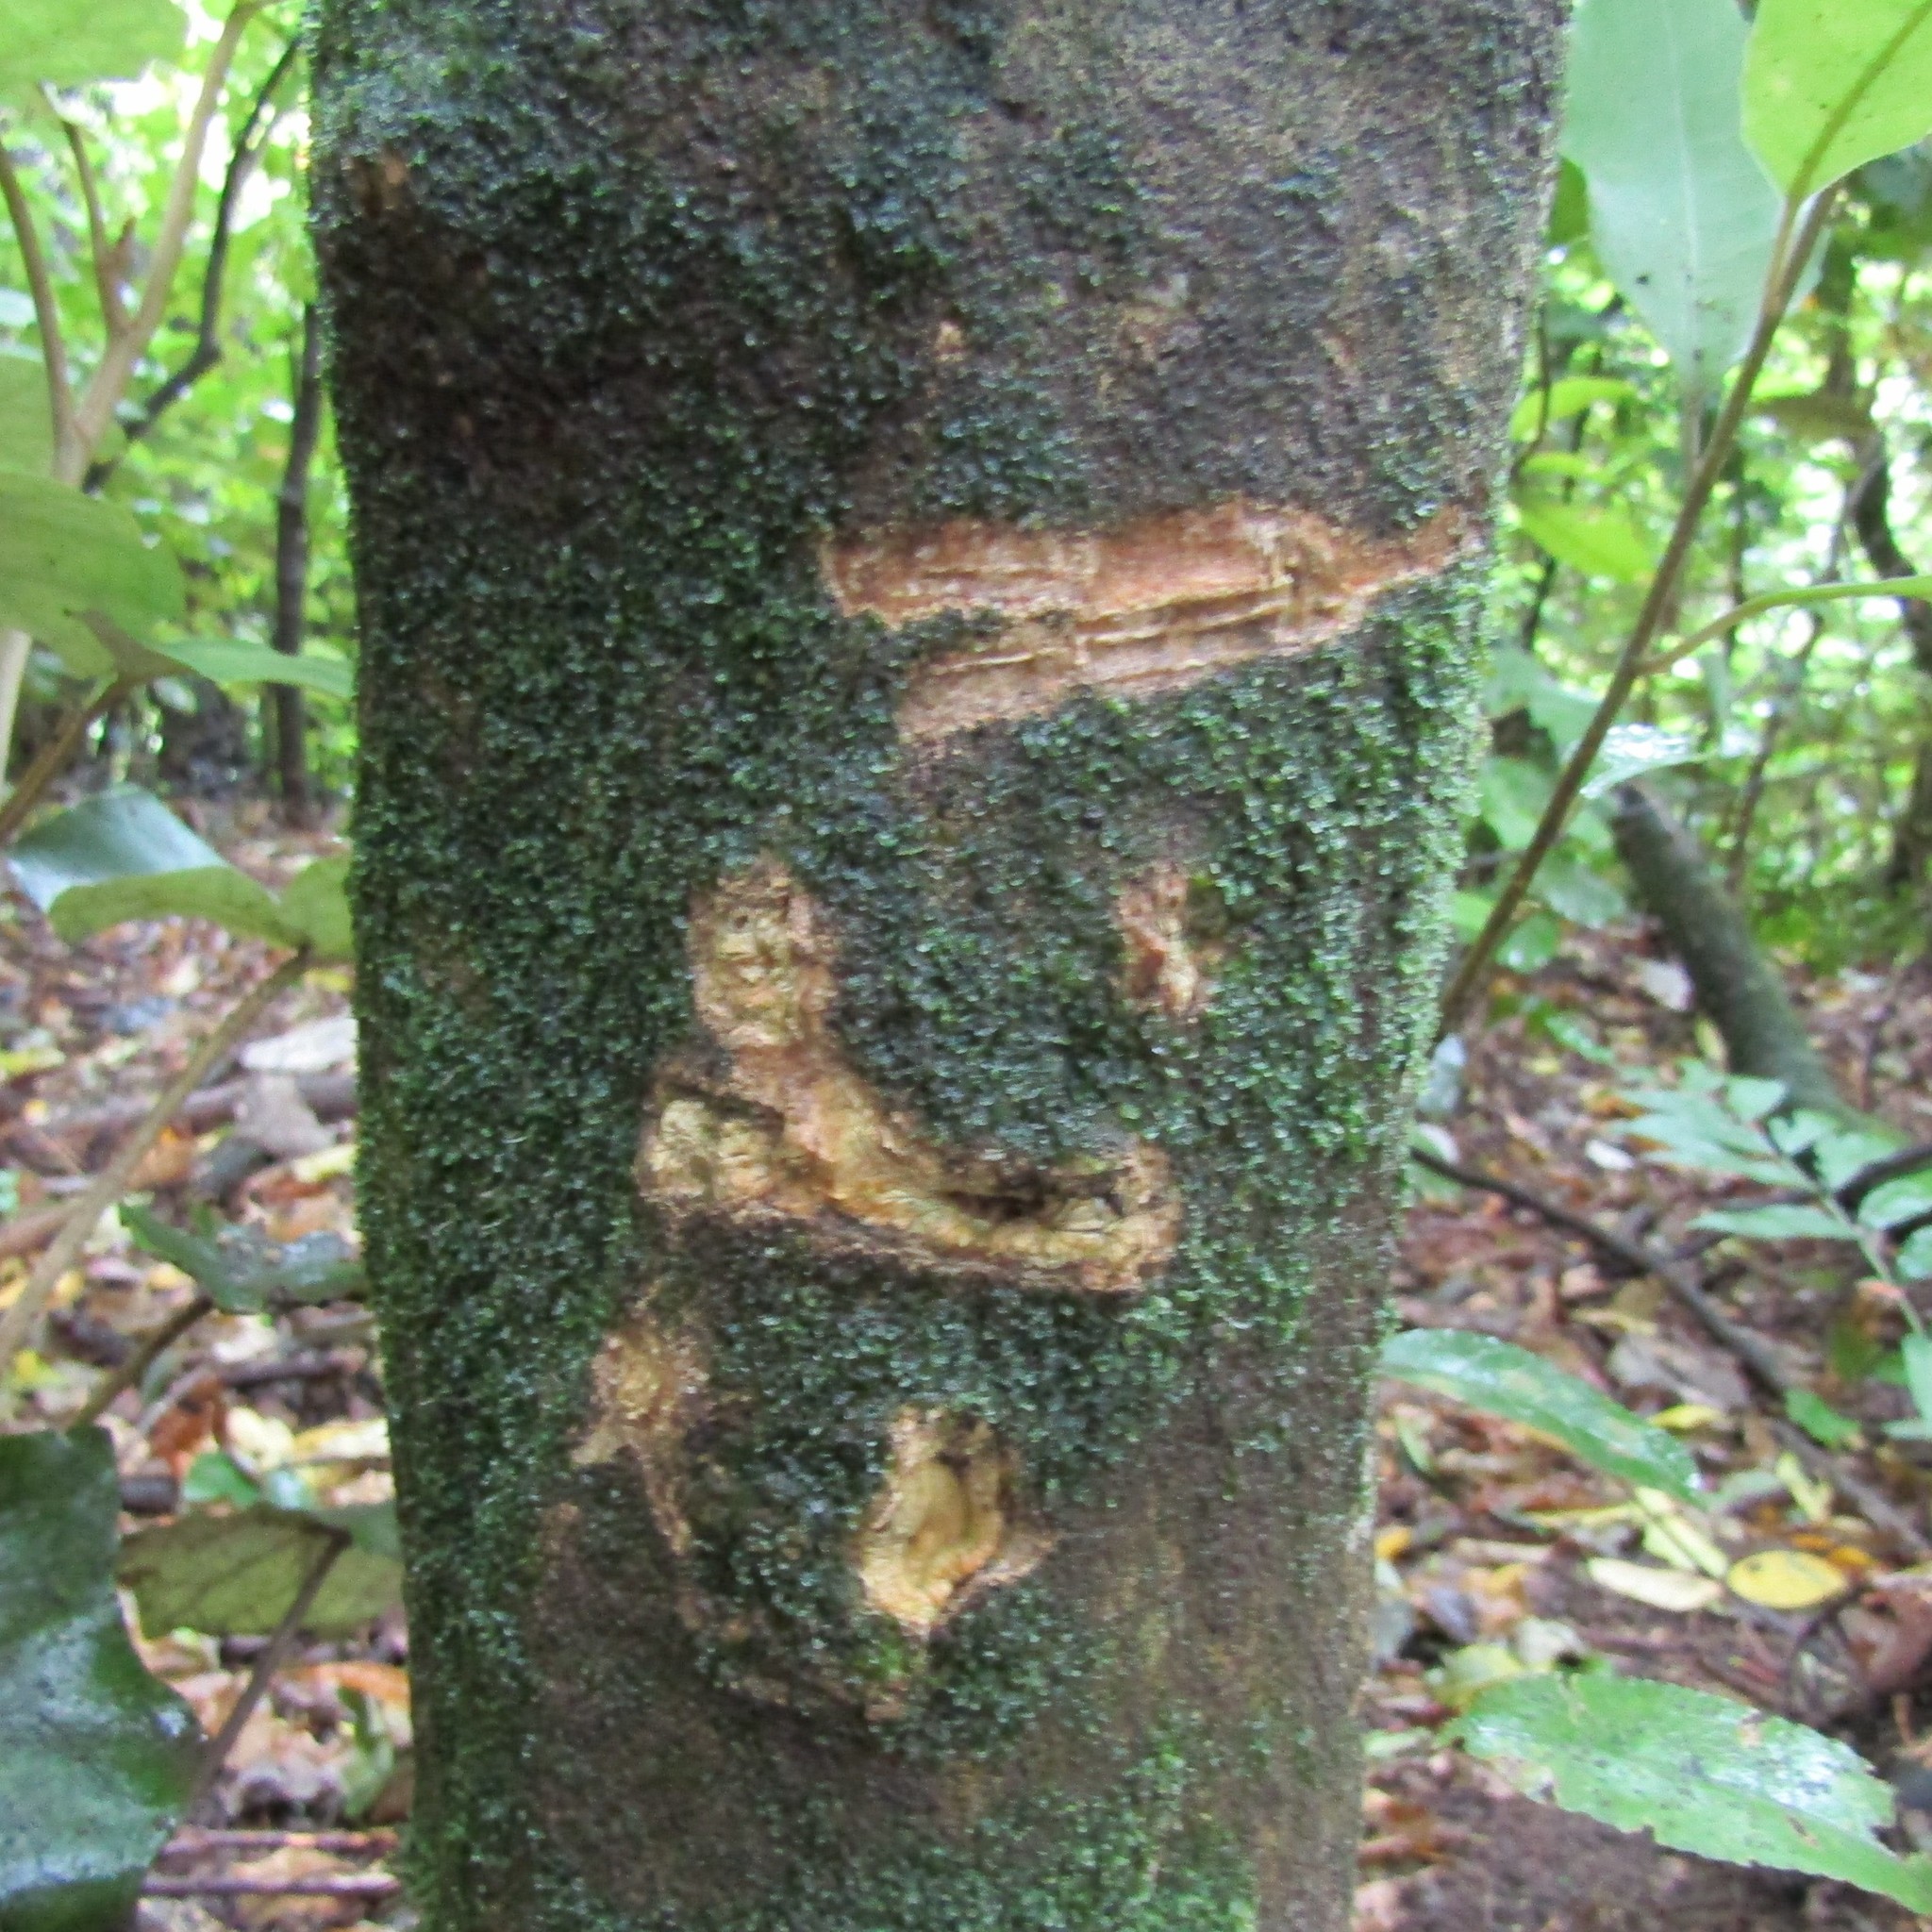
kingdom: Animalia
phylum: Chordata
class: Mammalia
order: Diprotodontia
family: Phalangeridae
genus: Trichosurus
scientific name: Trichosurus vulpecula
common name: Common brushtail
